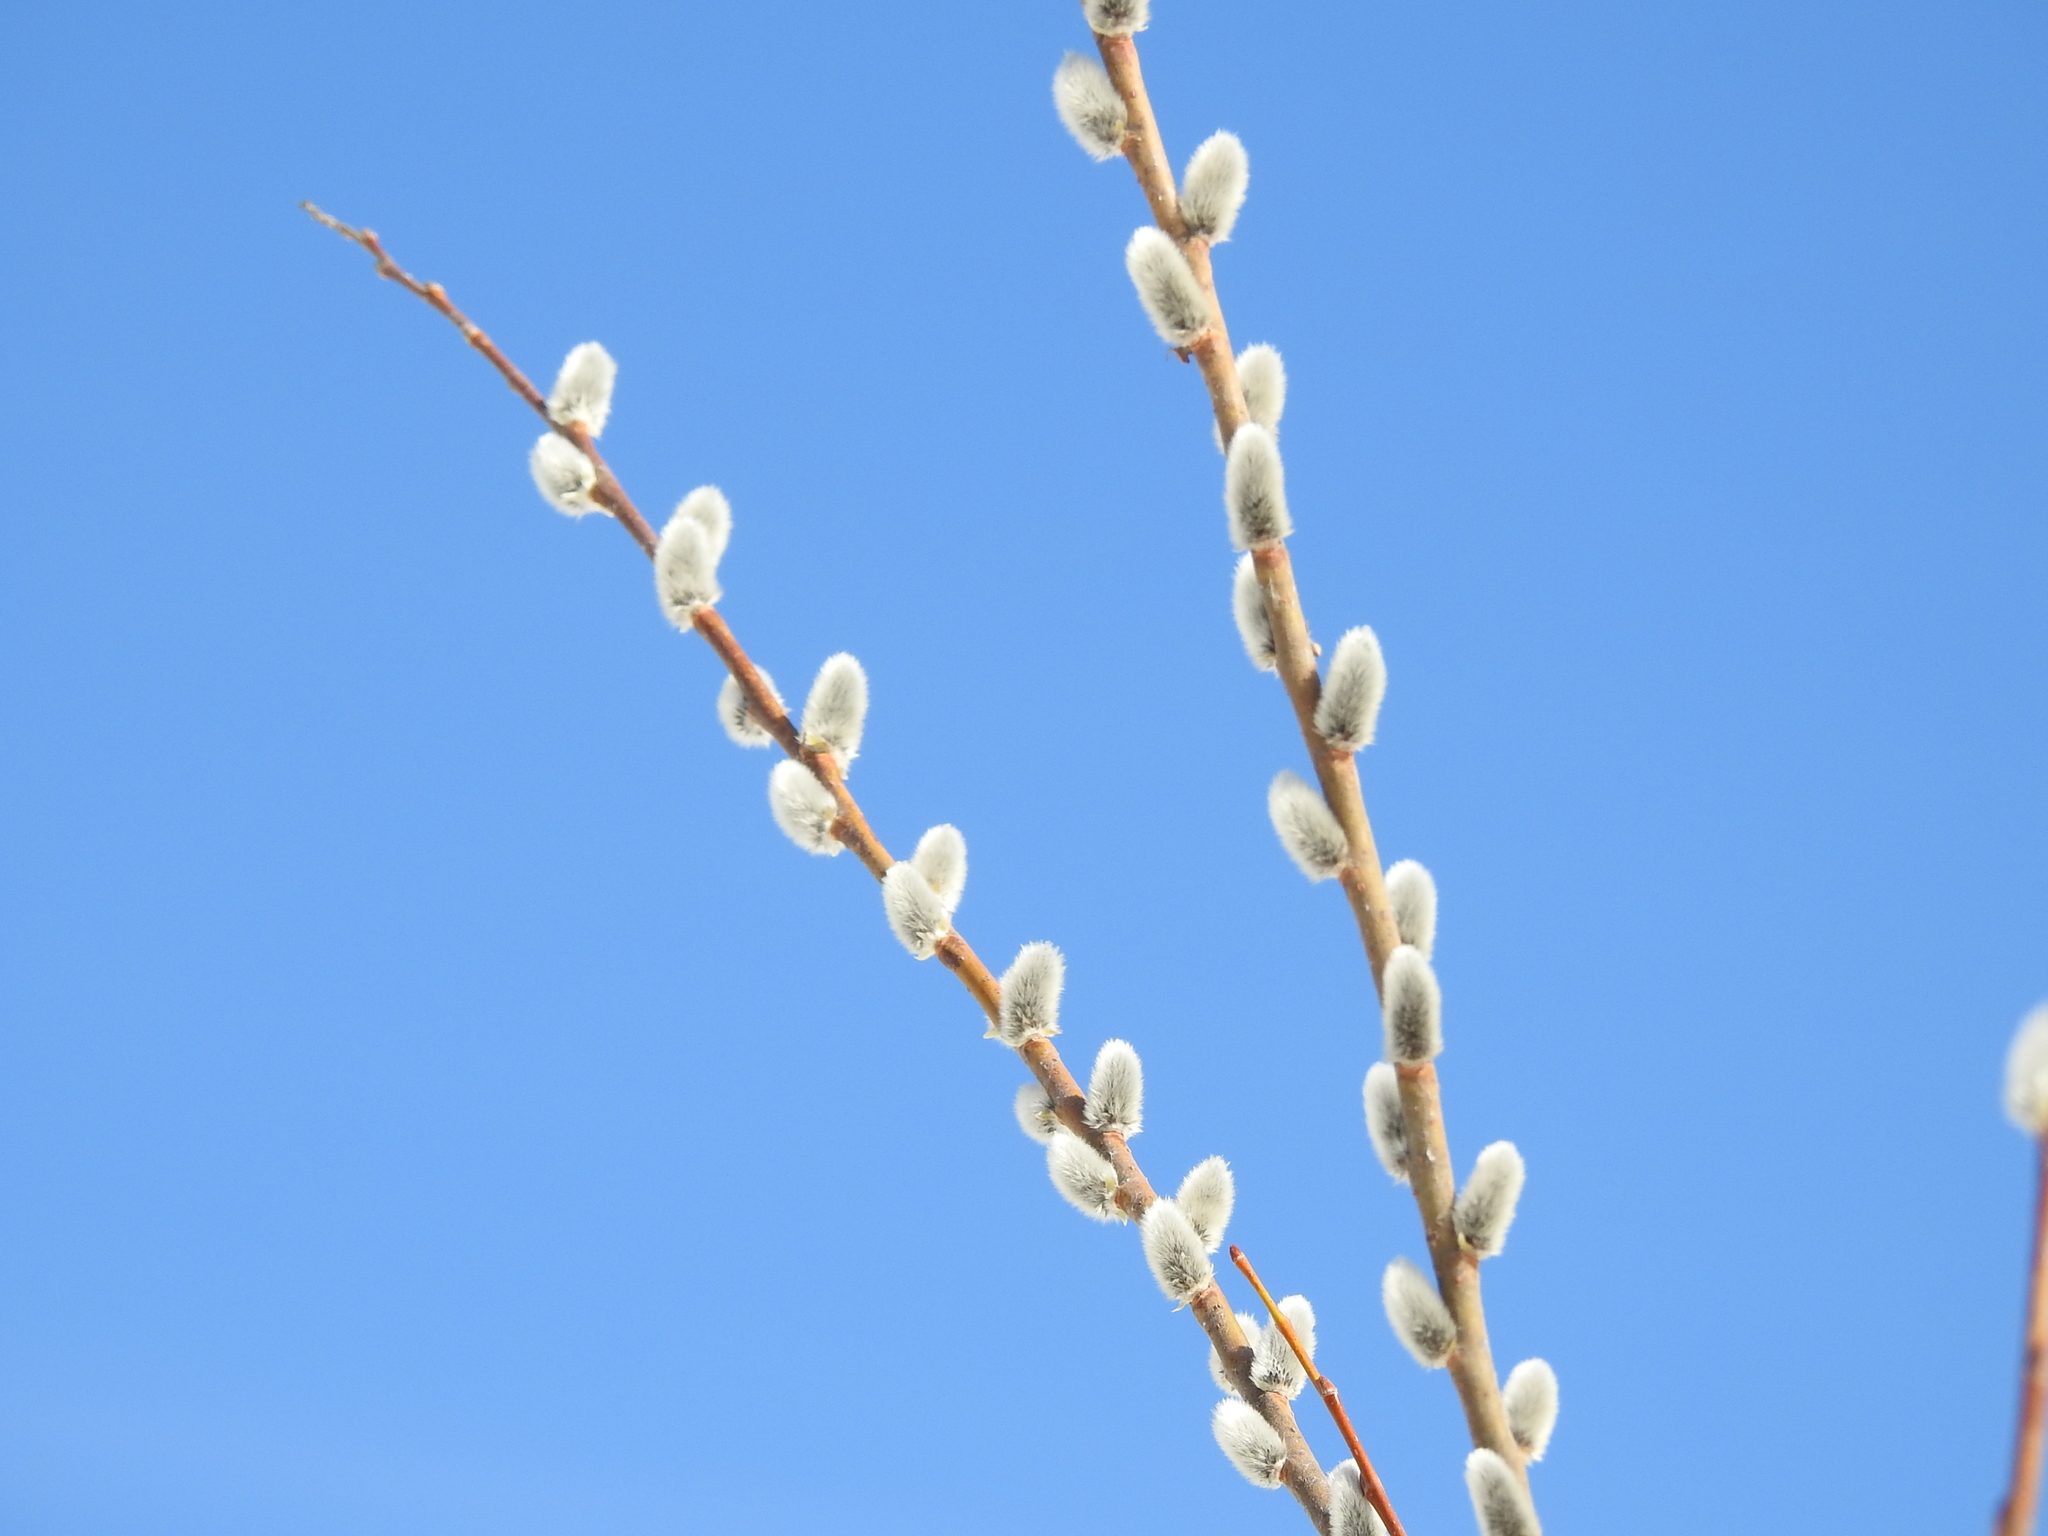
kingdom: Plantae
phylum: Tracheophyta
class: Magnoliopsida
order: Malpighiales
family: Salicaceae
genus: Salix
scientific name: Salix caprea
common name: Goat willow
